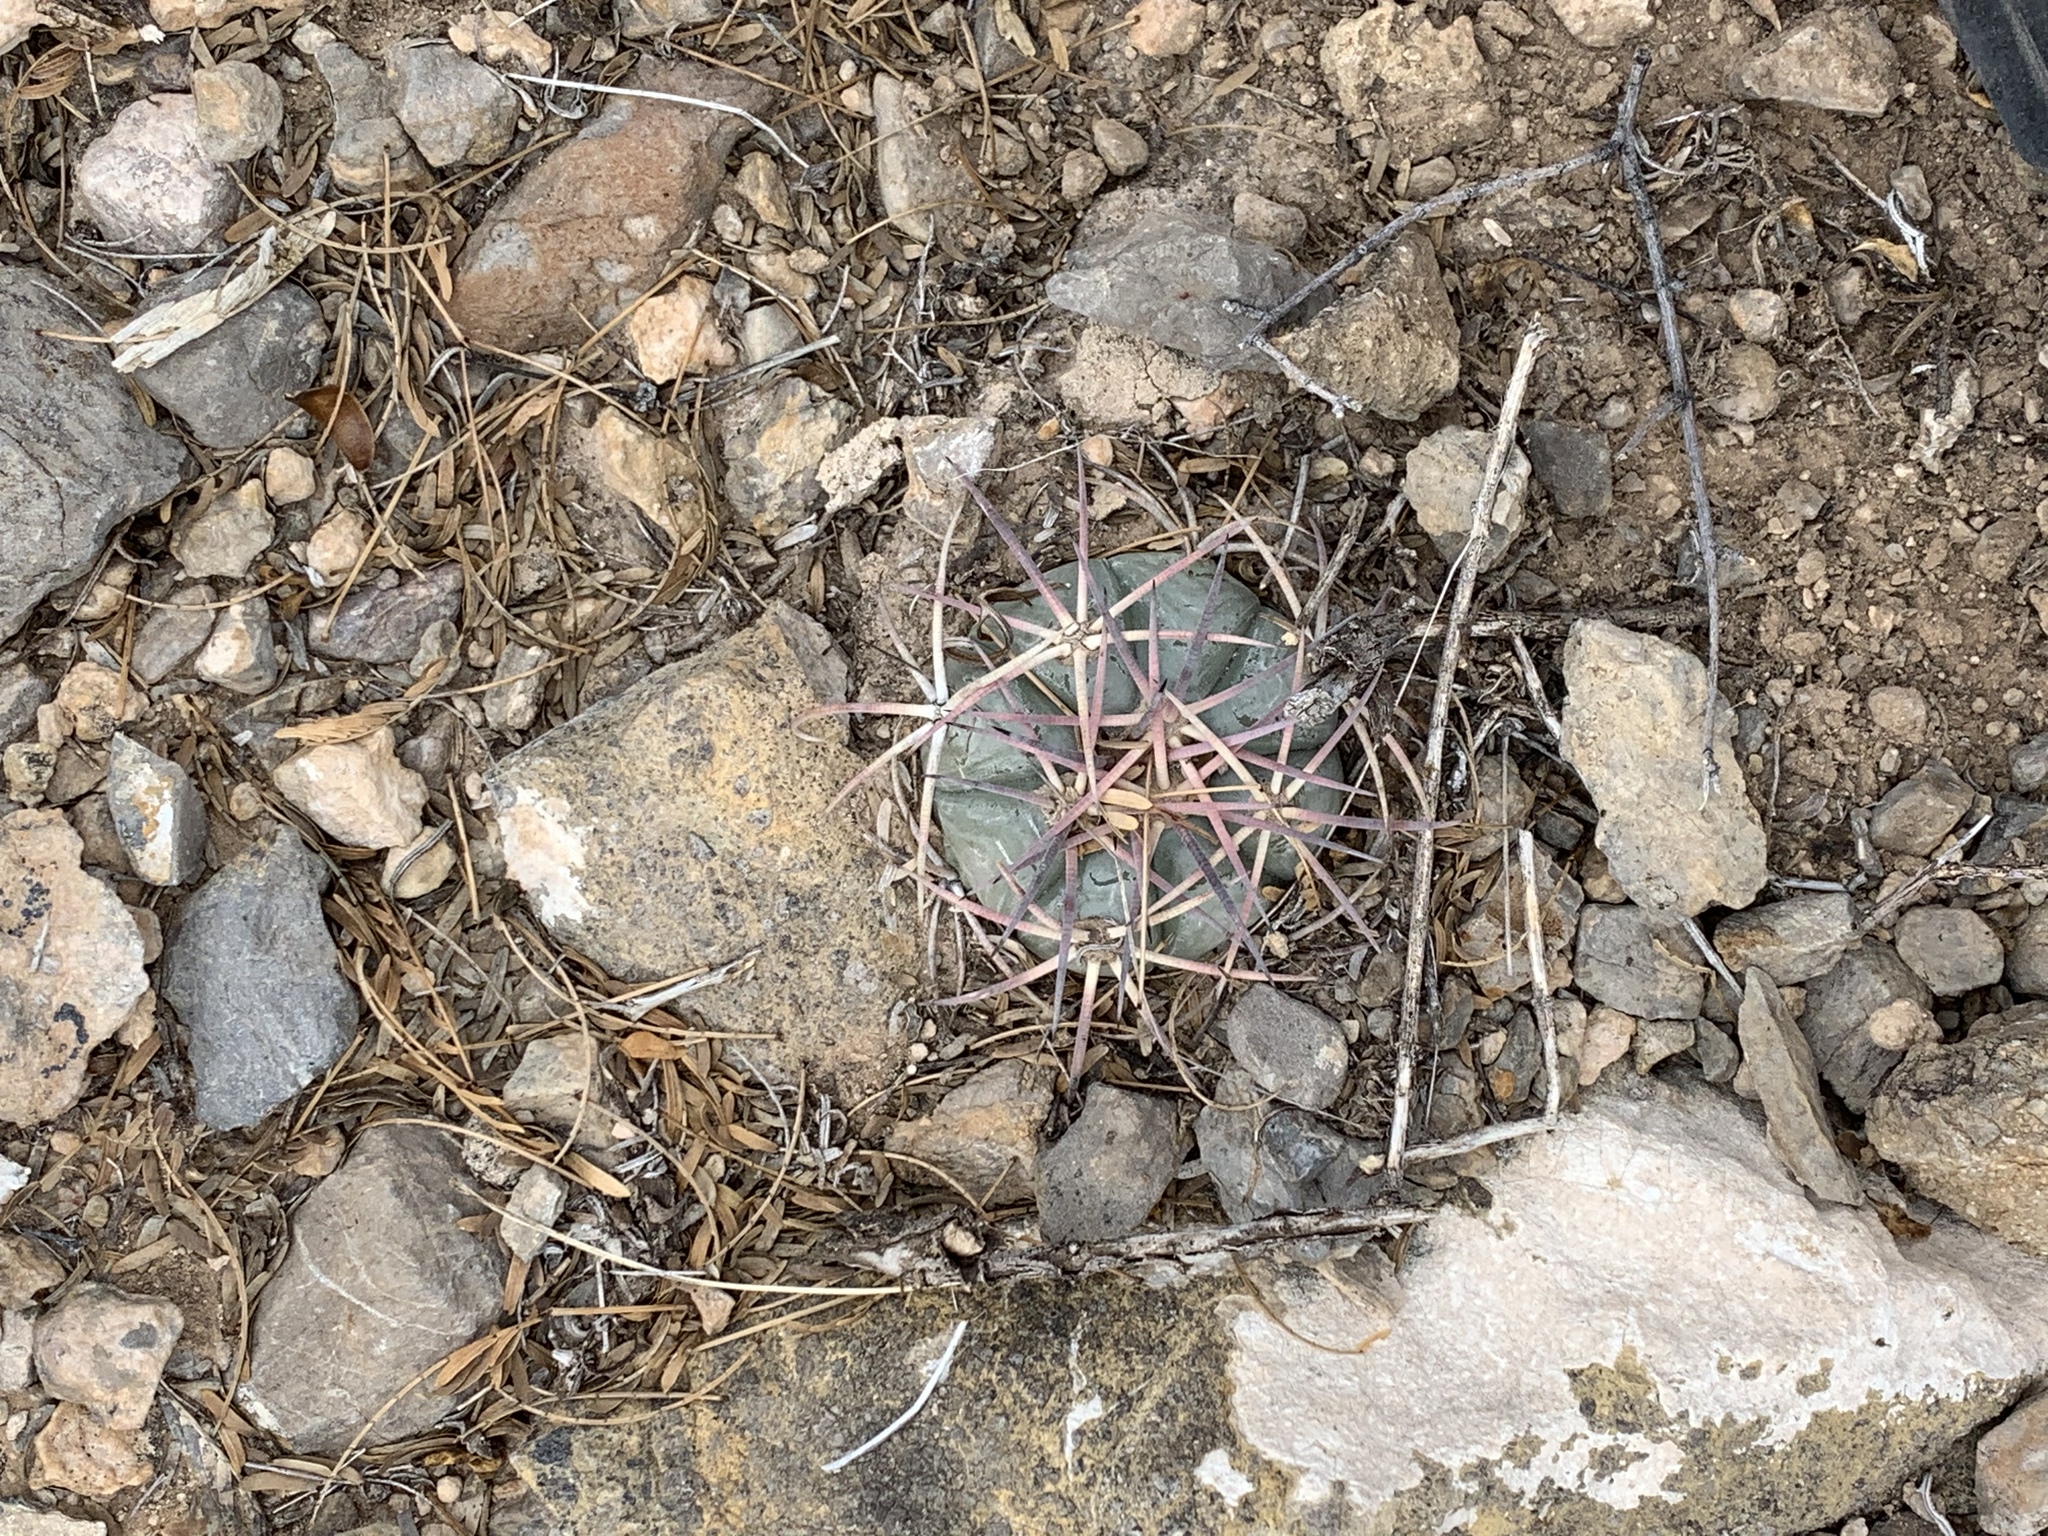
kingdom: Plantae
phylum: Tracheophyta
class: Magnoliopsida
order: Caryophyllales
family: Cactaceae
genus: Echinocactus
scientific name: Echinocactus horizonthalonius
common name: Devilshead
